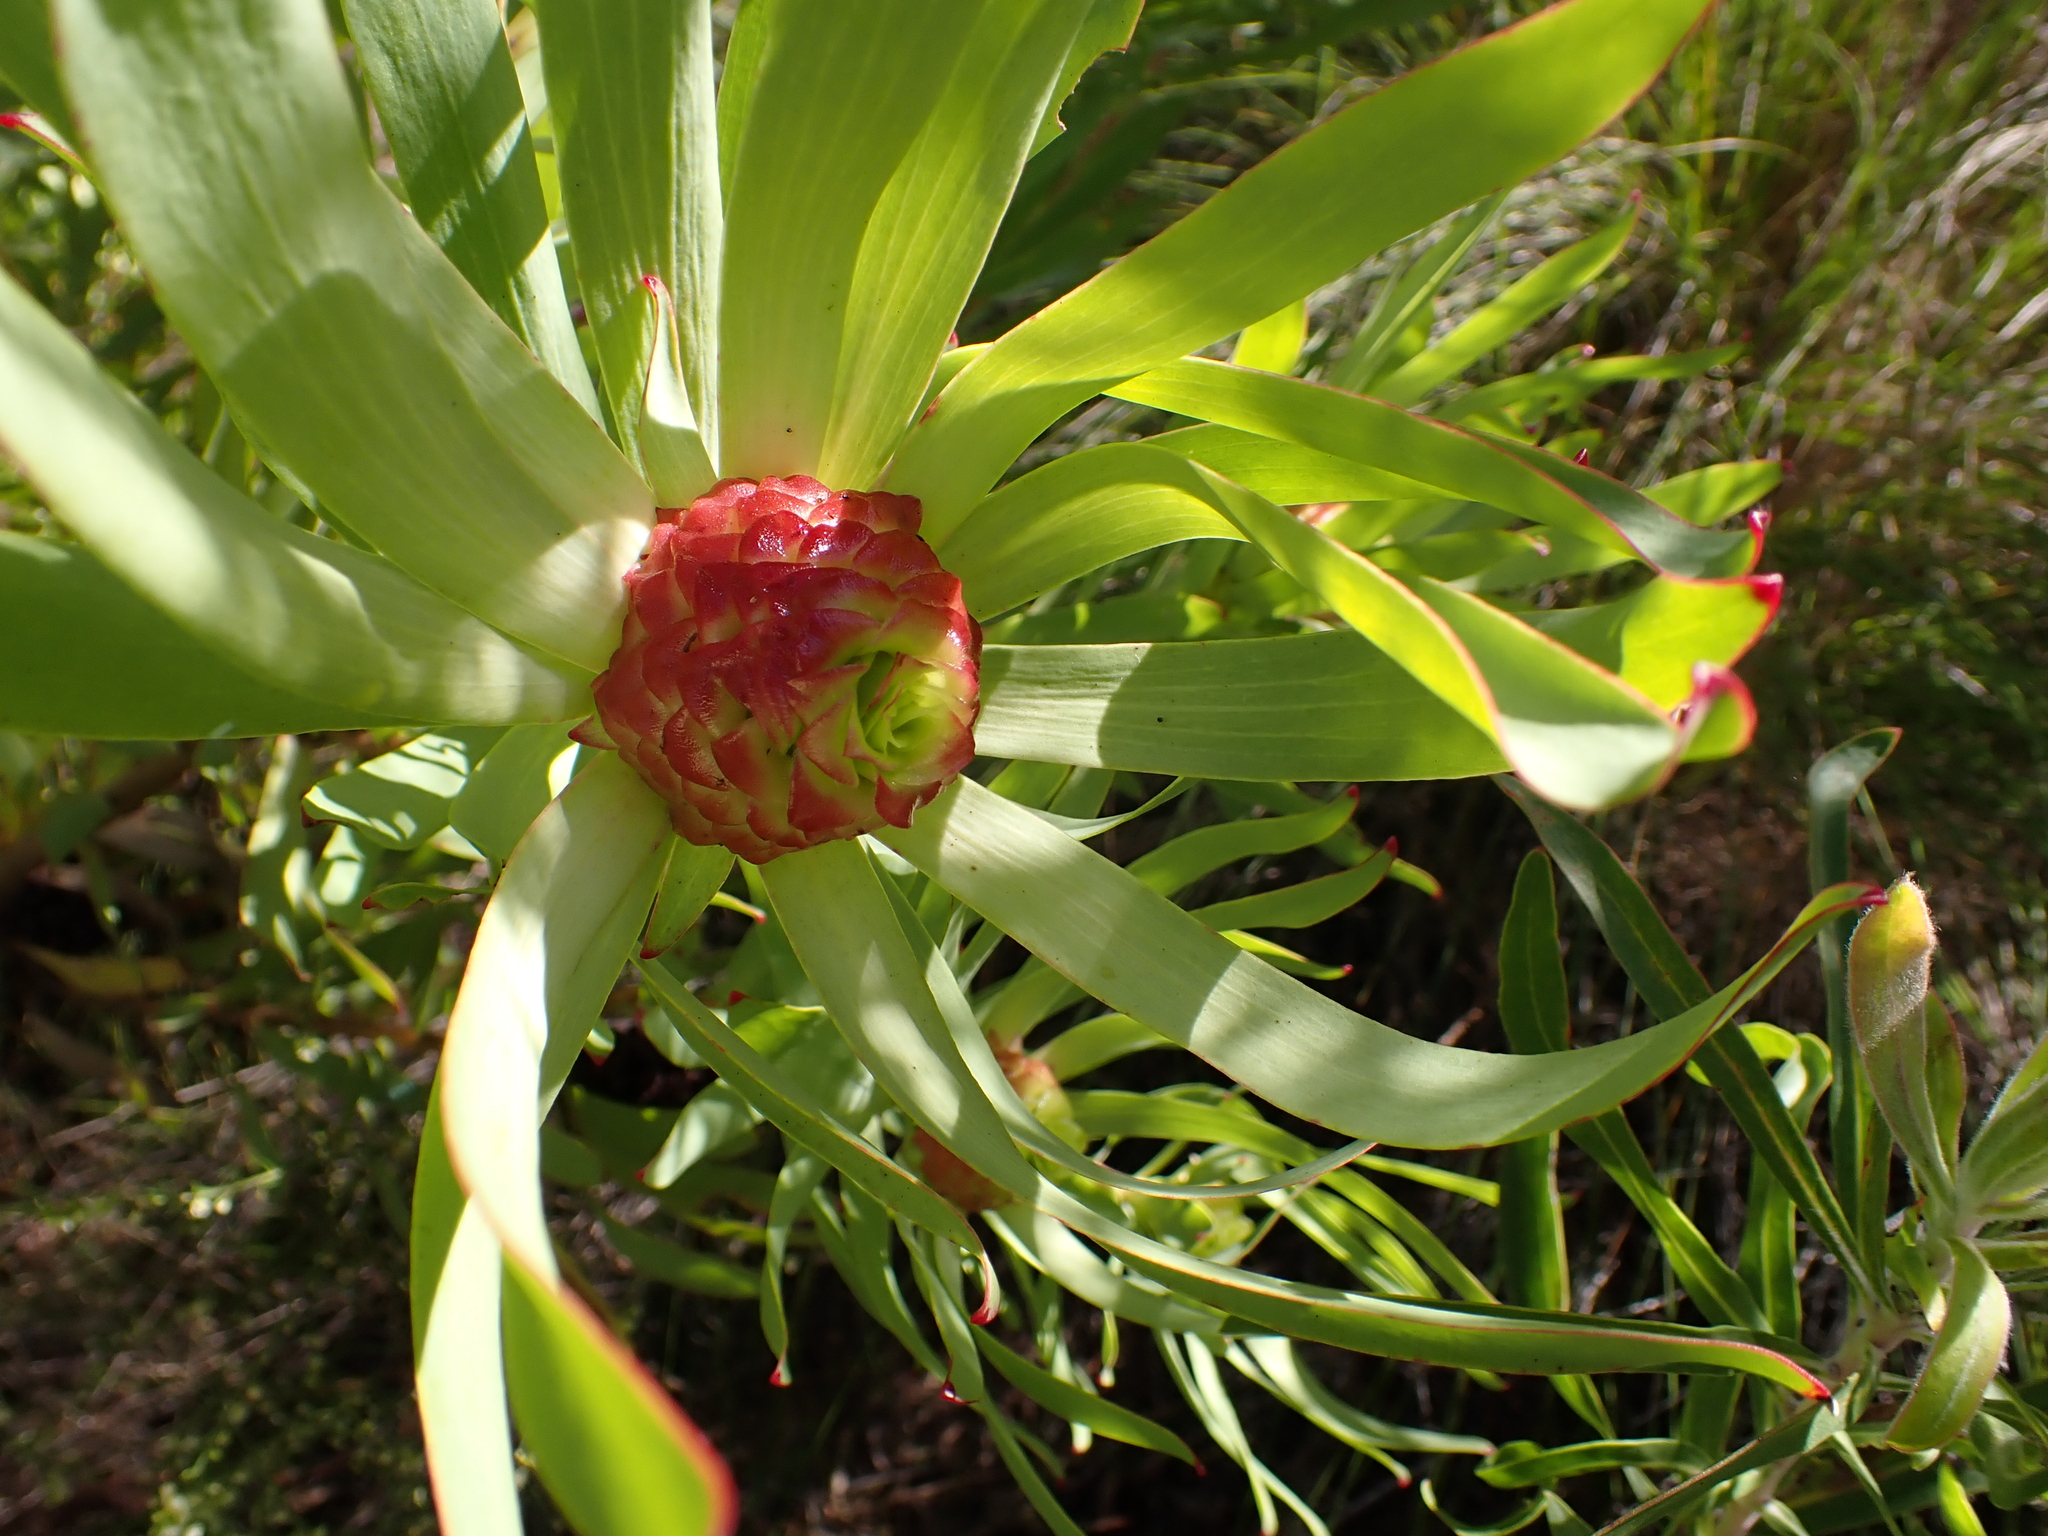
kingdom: Plantae
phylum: Tracheophyta
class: Magnoliopsida
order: Proteales
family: Proteaceae
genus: Leucadendron
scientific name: Leucadendron tradouwense
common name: Tradouw conebush
